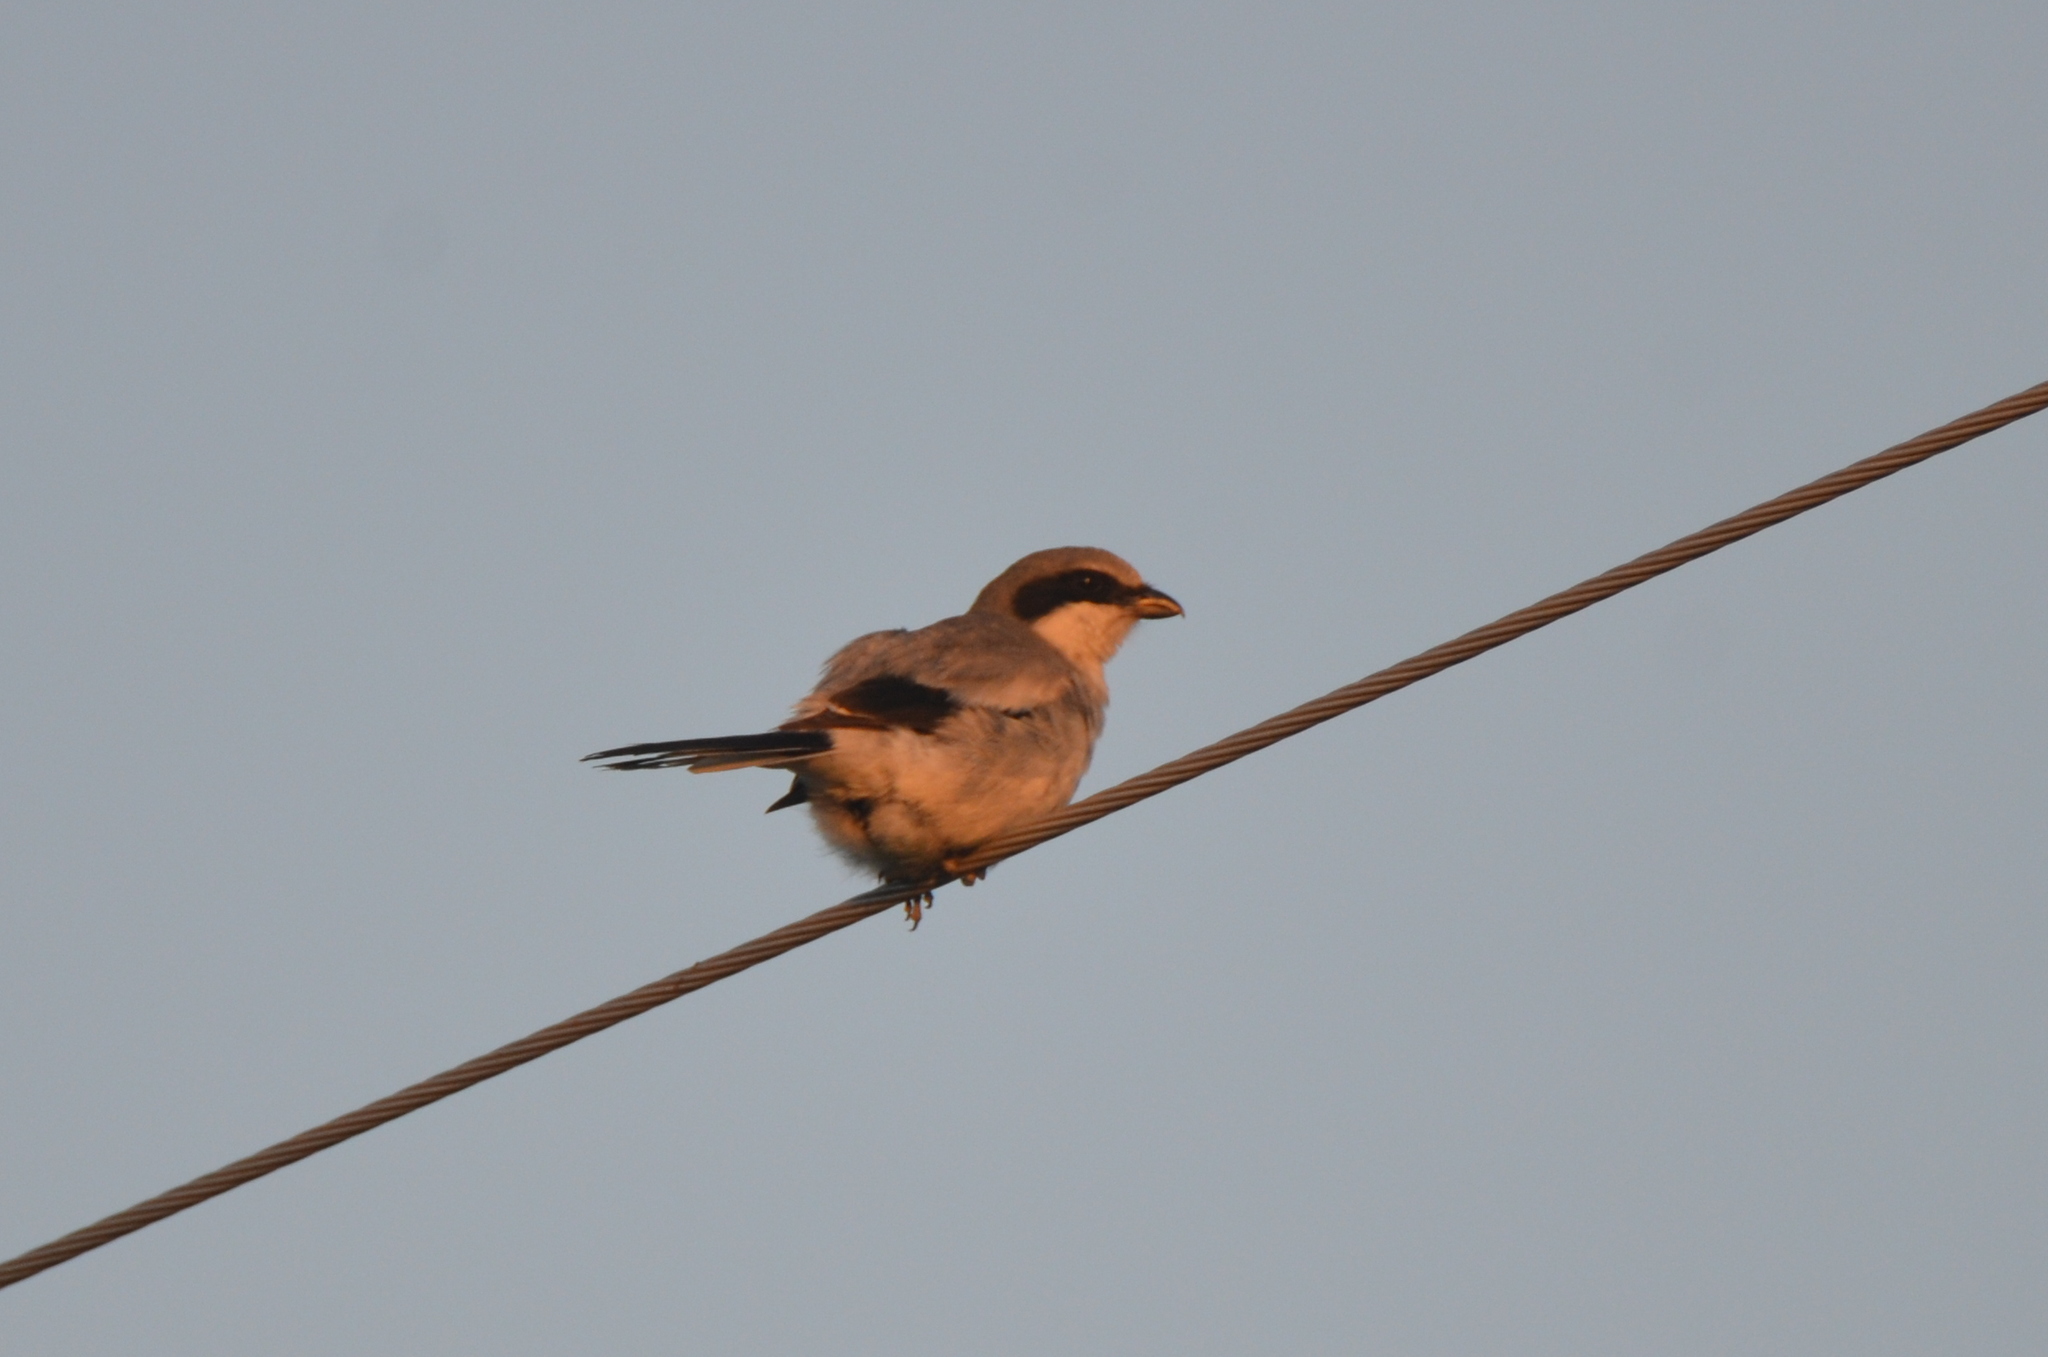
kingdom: Animalia
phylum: Chordata
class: Aves
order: Passeriformes
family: Laniidae
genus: Lanius
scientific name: Lanius ludovicianus
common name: Loggerhead shrike
